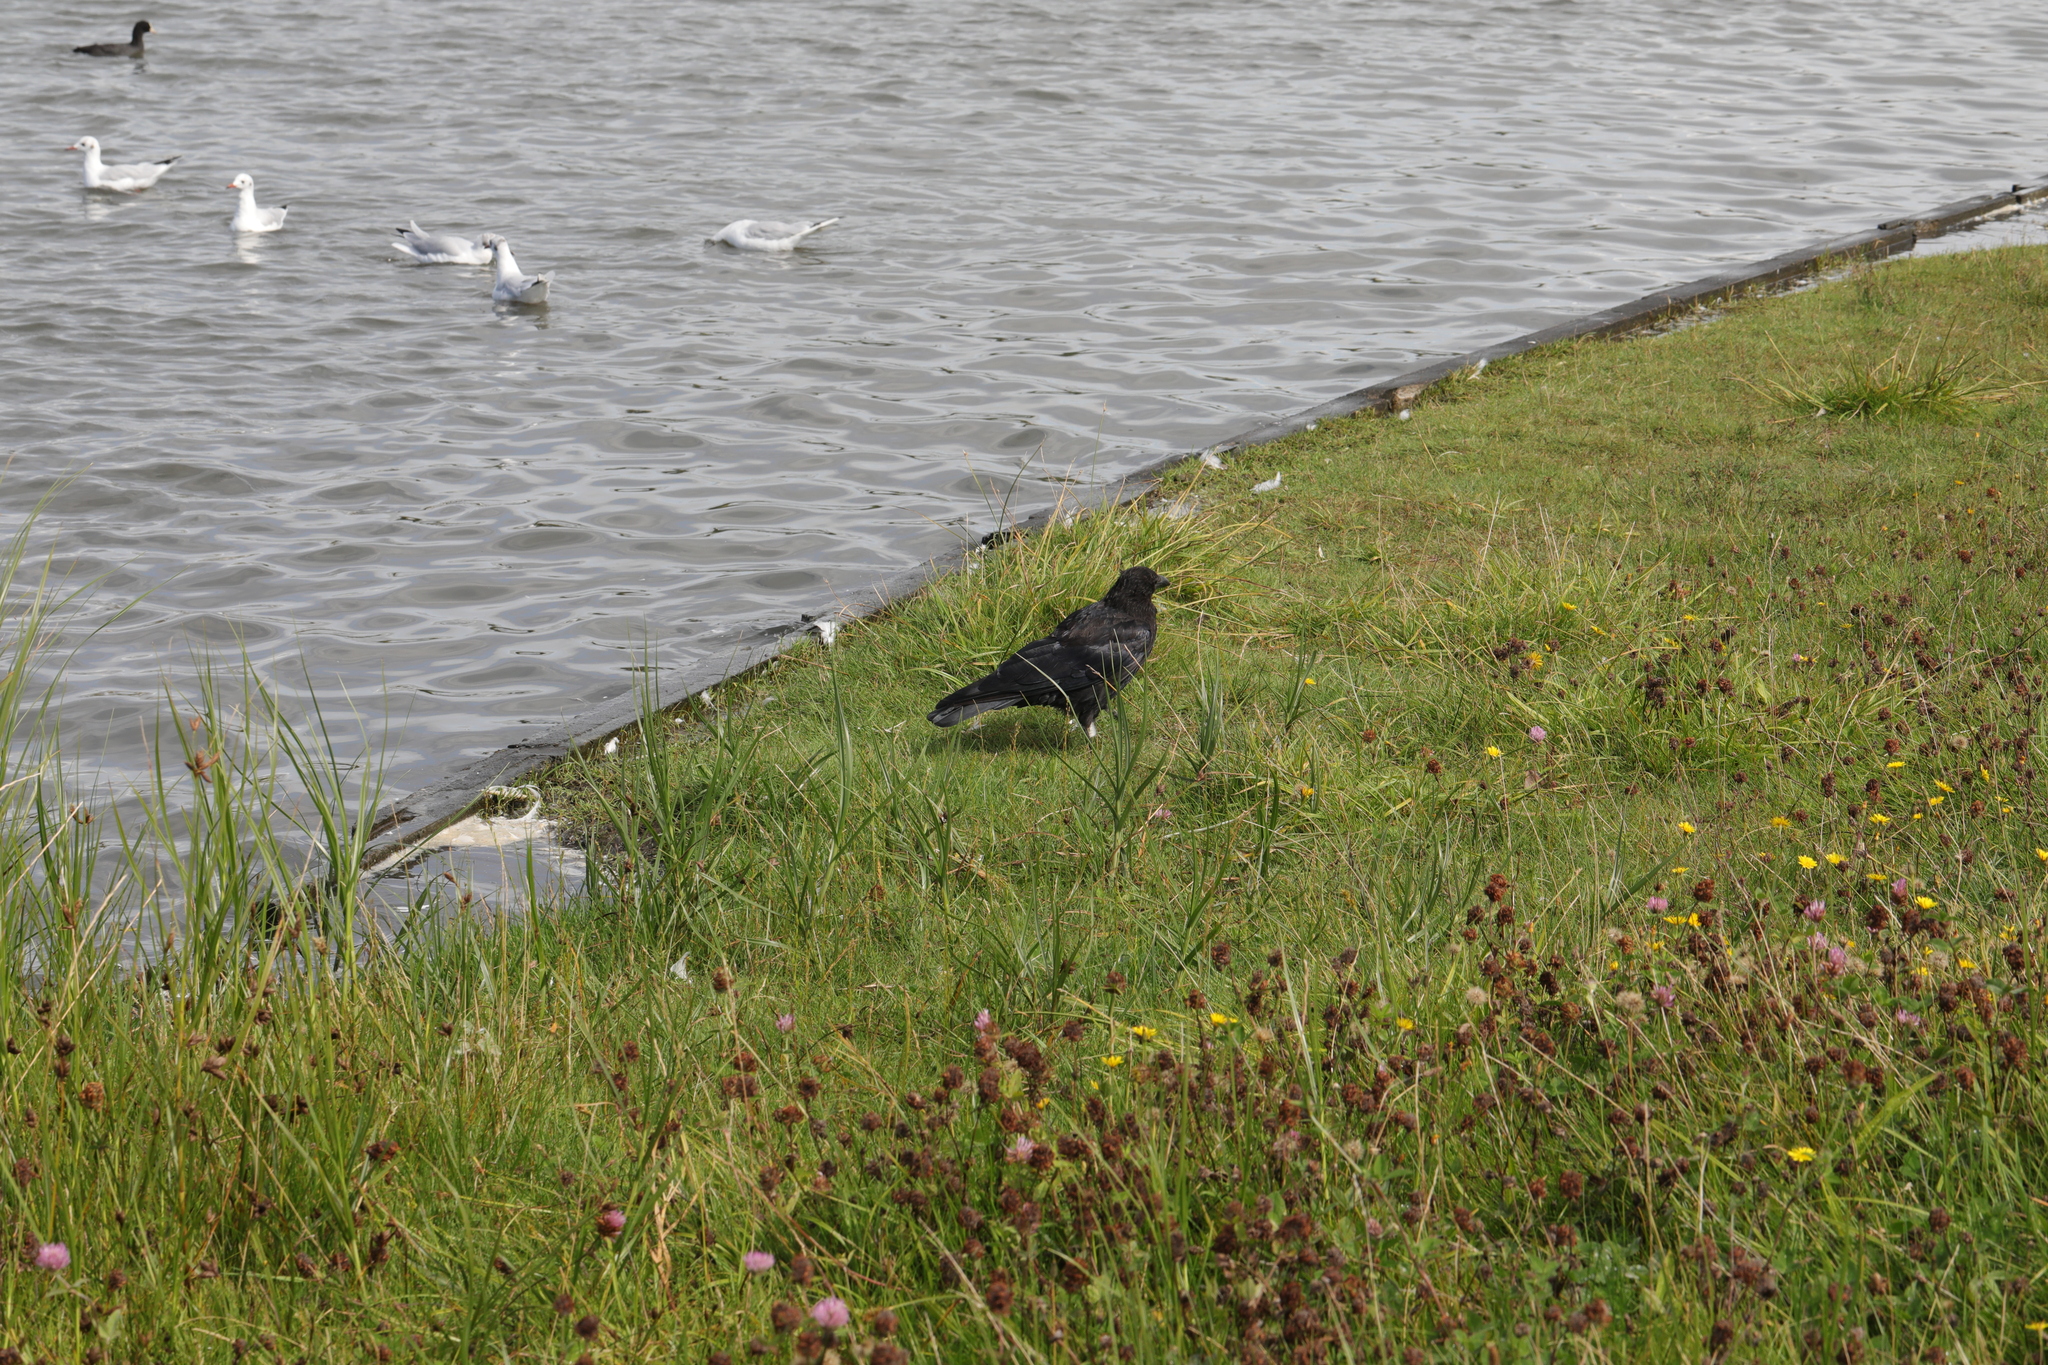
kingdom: Animalia
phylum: Chordata
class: Aves
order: Passeriformes
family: Corvidae
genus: Corvus
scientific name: Corvus corone
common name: Carrion crow
